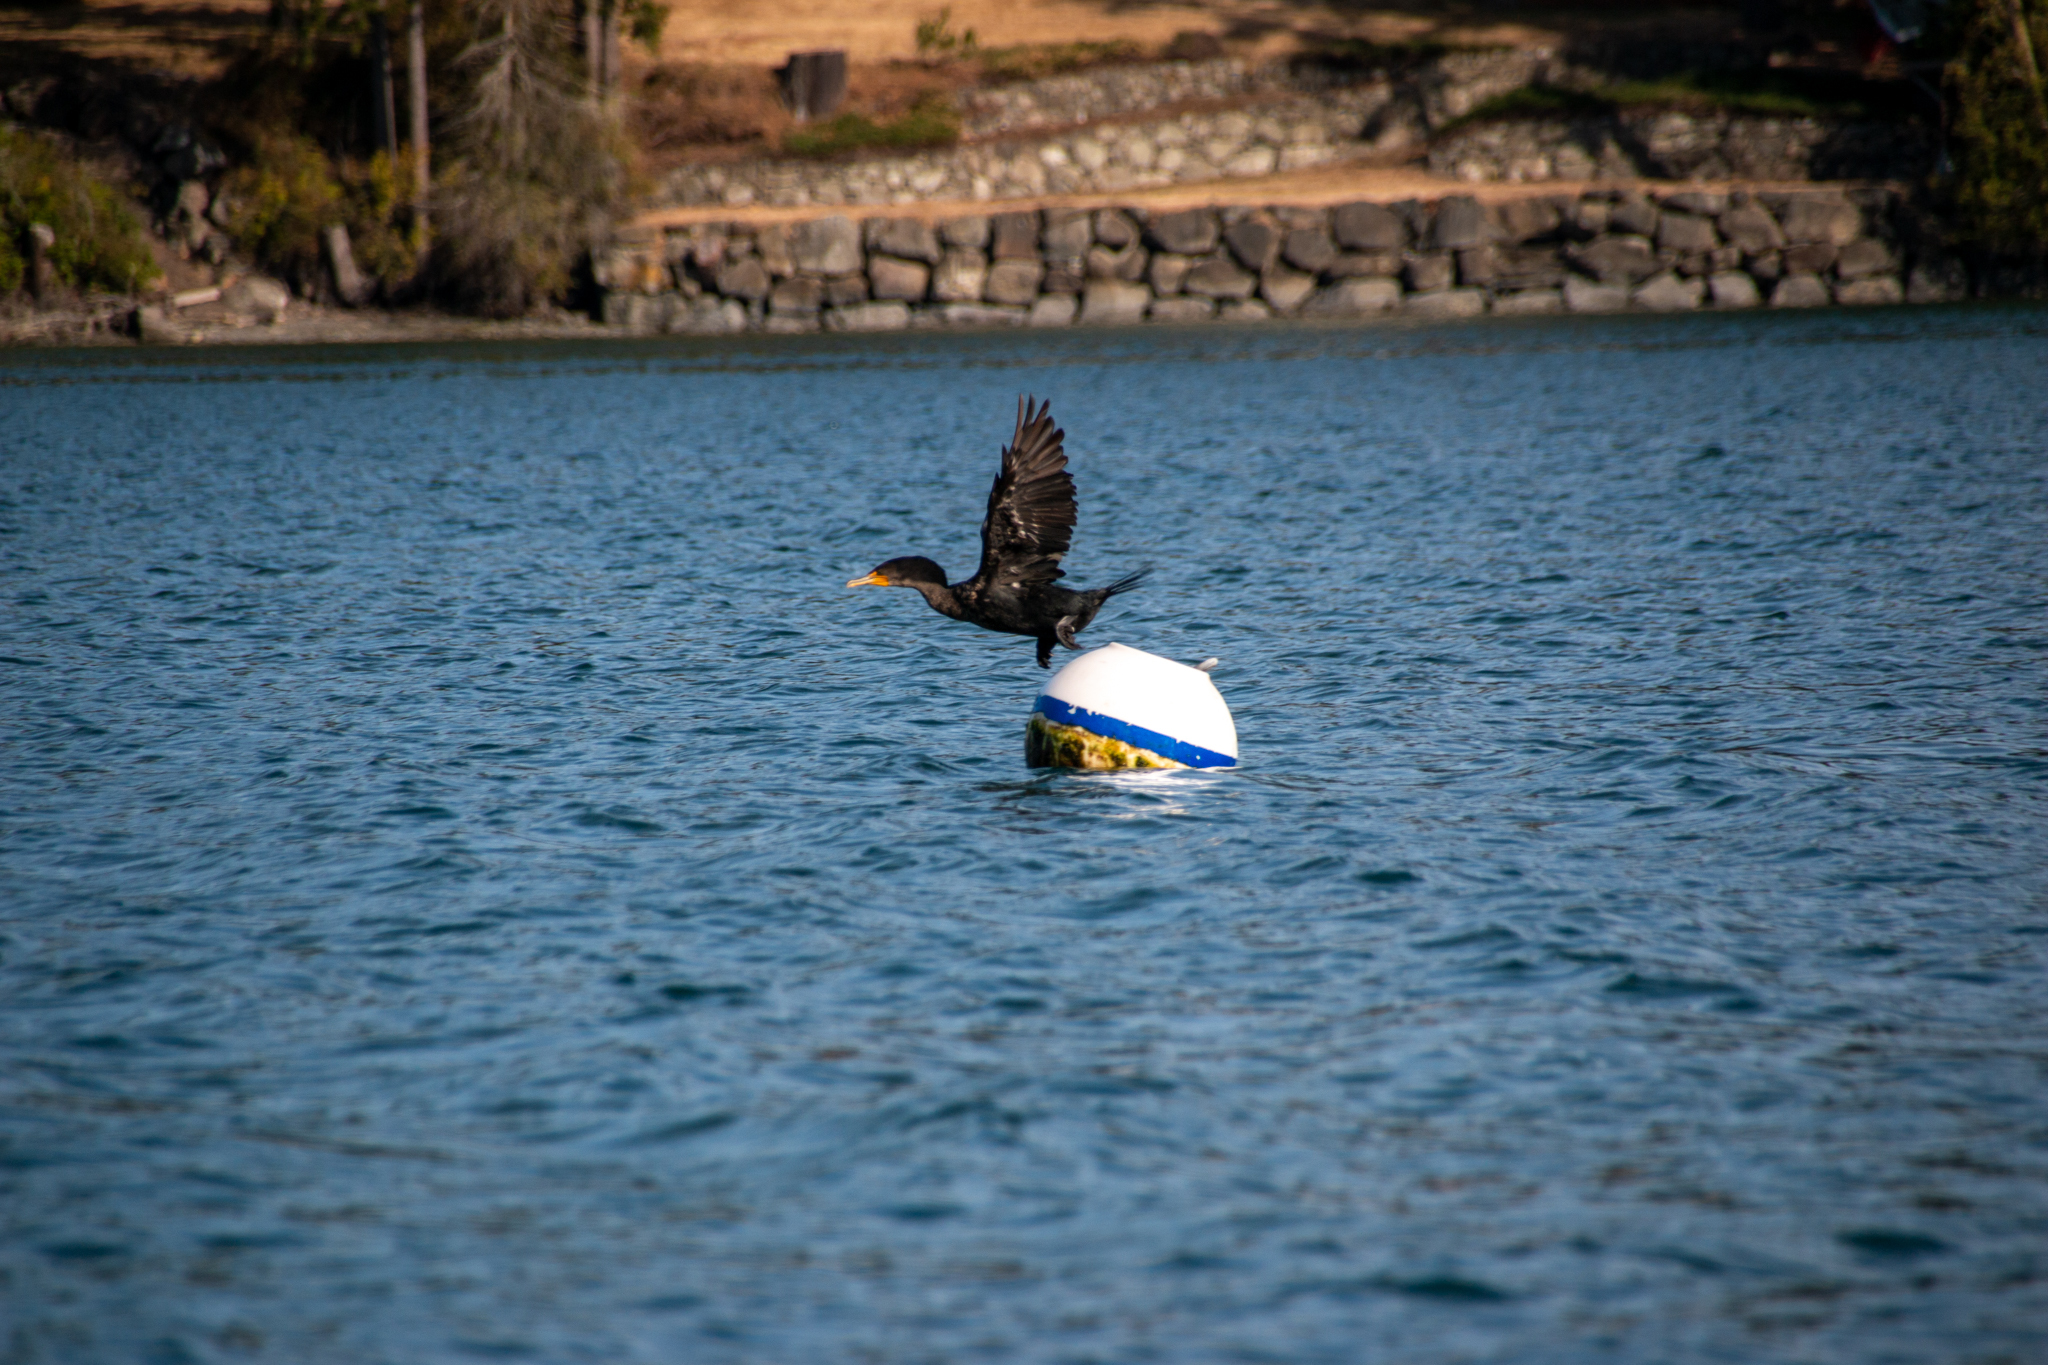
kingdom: Animalia
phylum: Chordata
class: Aves
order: Suliformes
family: Phalacrocoracidae
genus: Phalacrocorax
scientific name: Phalacrocorax auritus
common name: Double-crested cormorant
